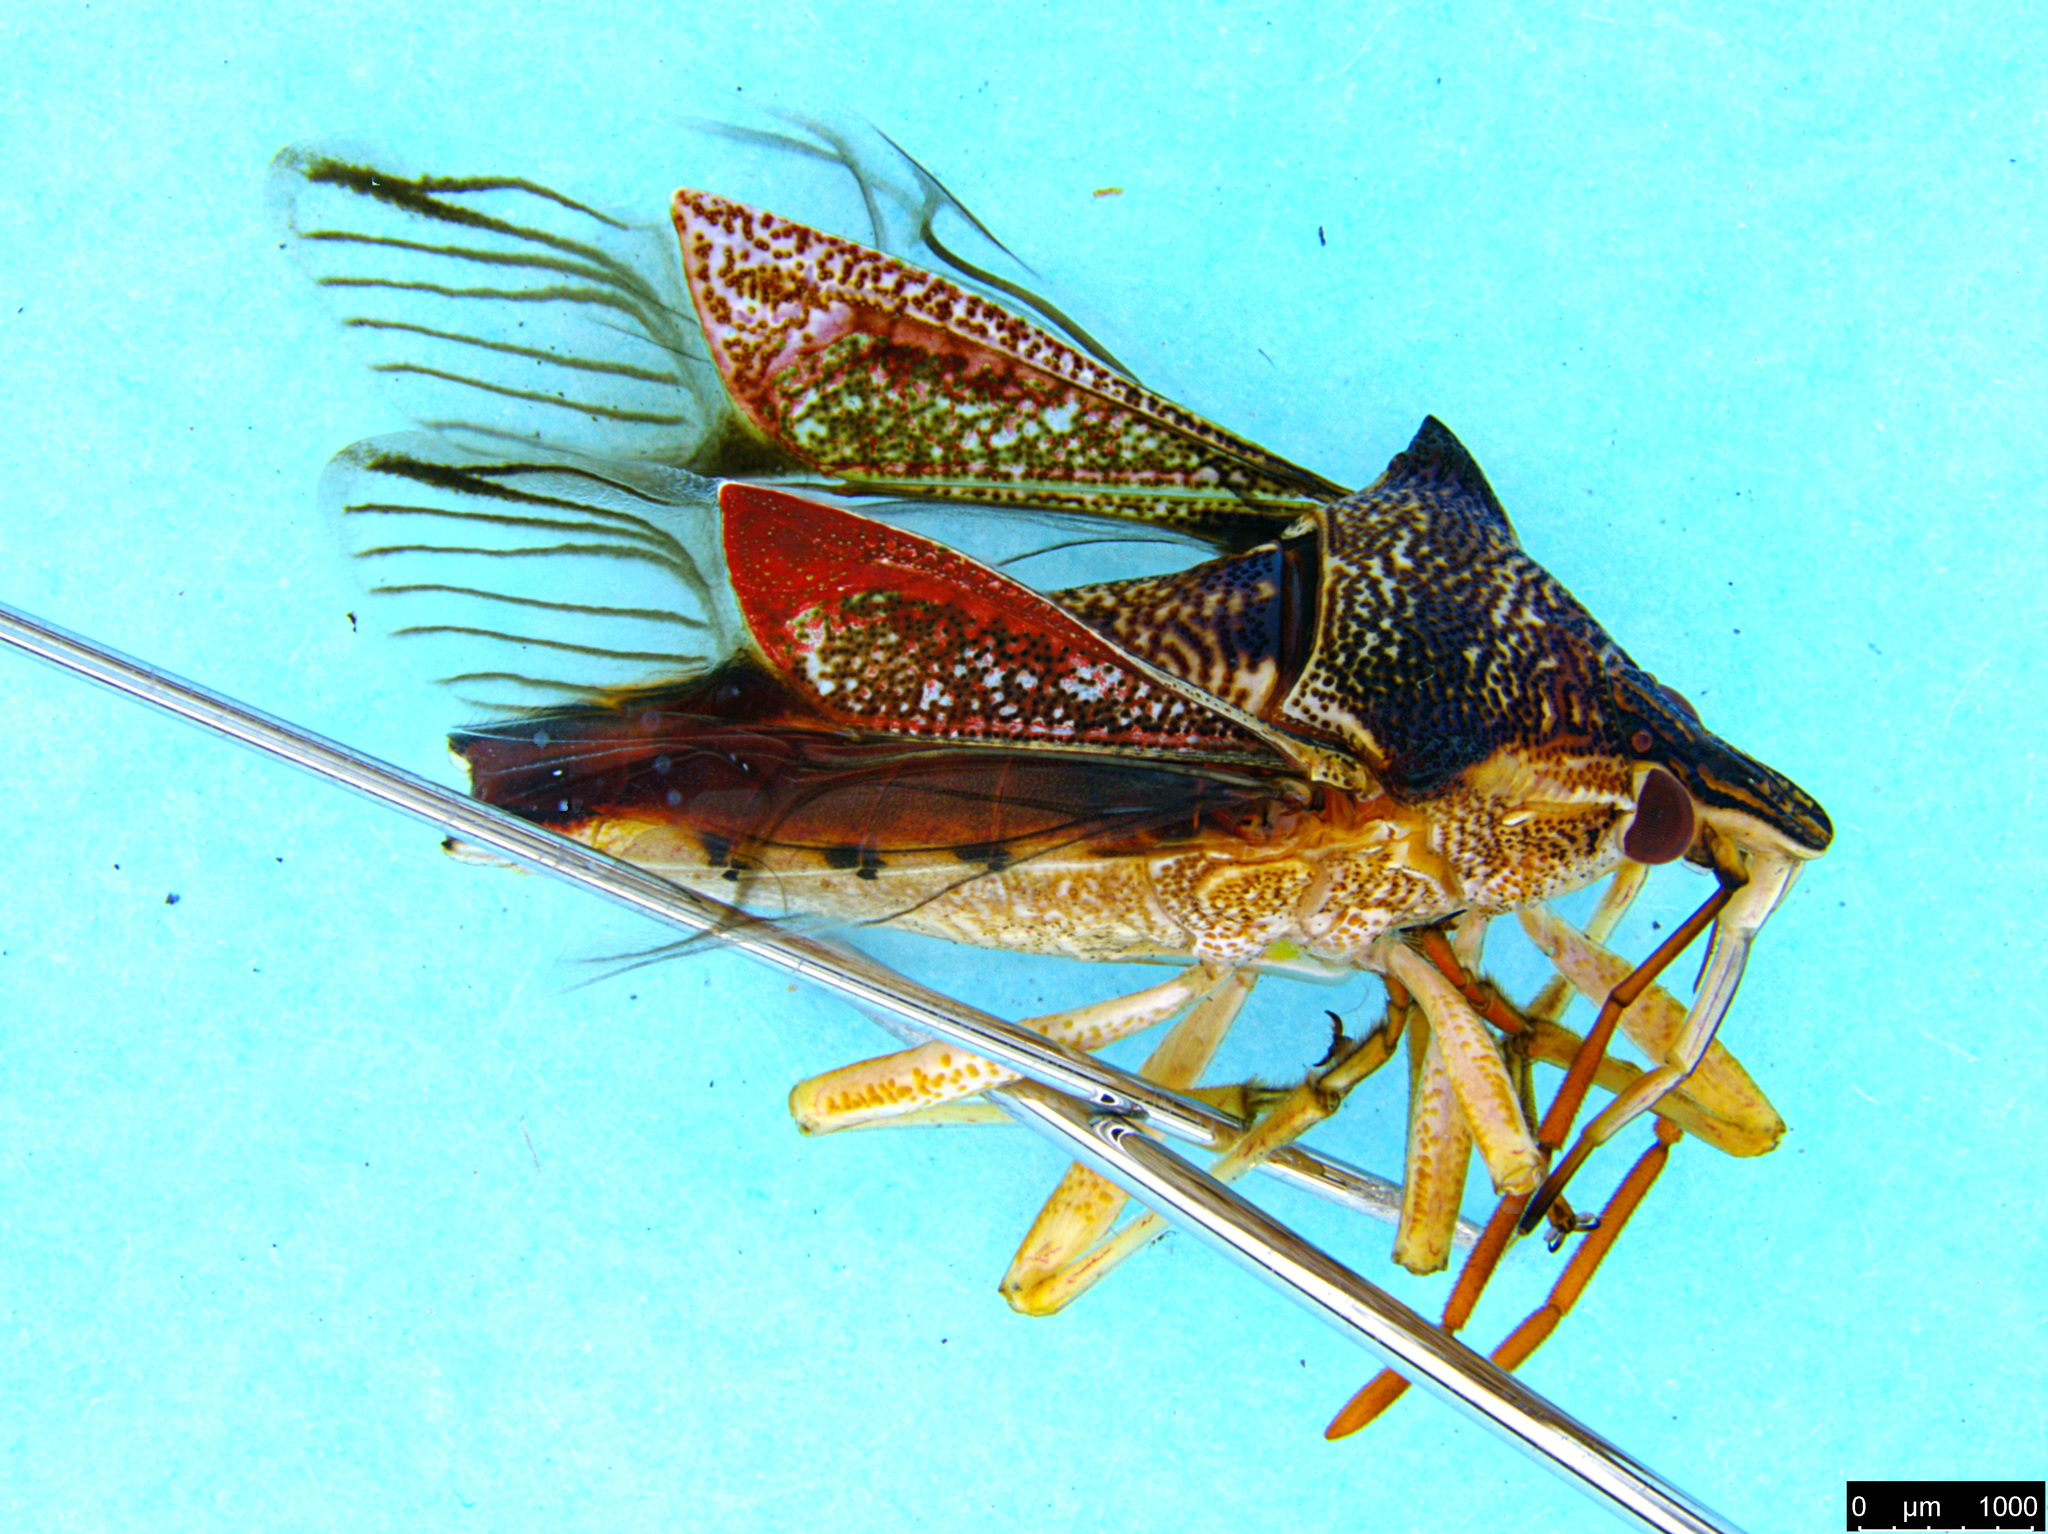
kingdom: Animalia
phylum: Arthropoda
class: Insecta
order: Hemiptera
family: Pentatomidae
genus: Oechalia
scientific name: Oechalia schellenbergii
